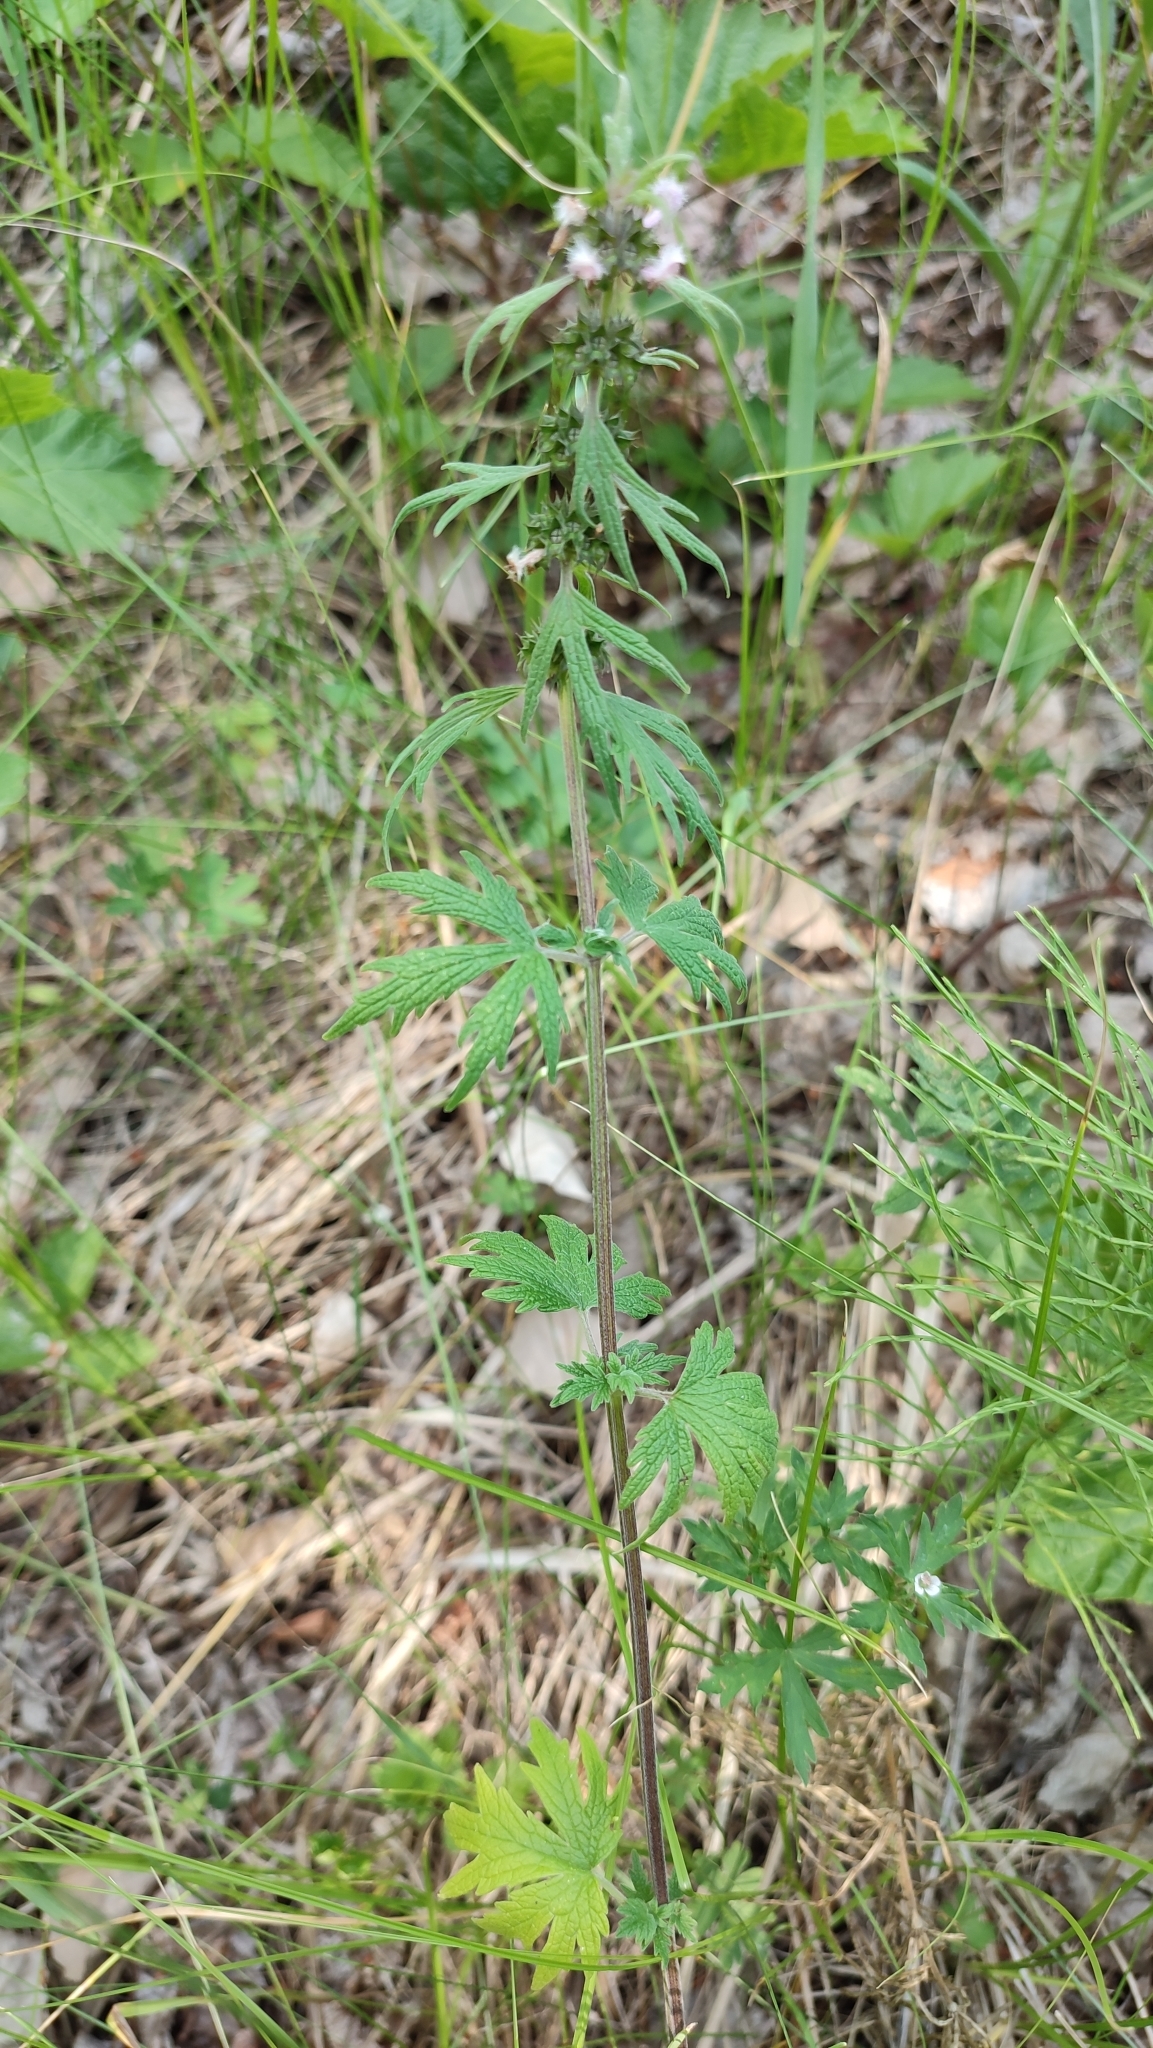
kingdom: Plantae
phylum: Tracheophyta
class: Magnoliopsida
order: Lamiales
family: Lamiaceae
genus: Leonurus
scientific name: Leonurus quinquelobatus
